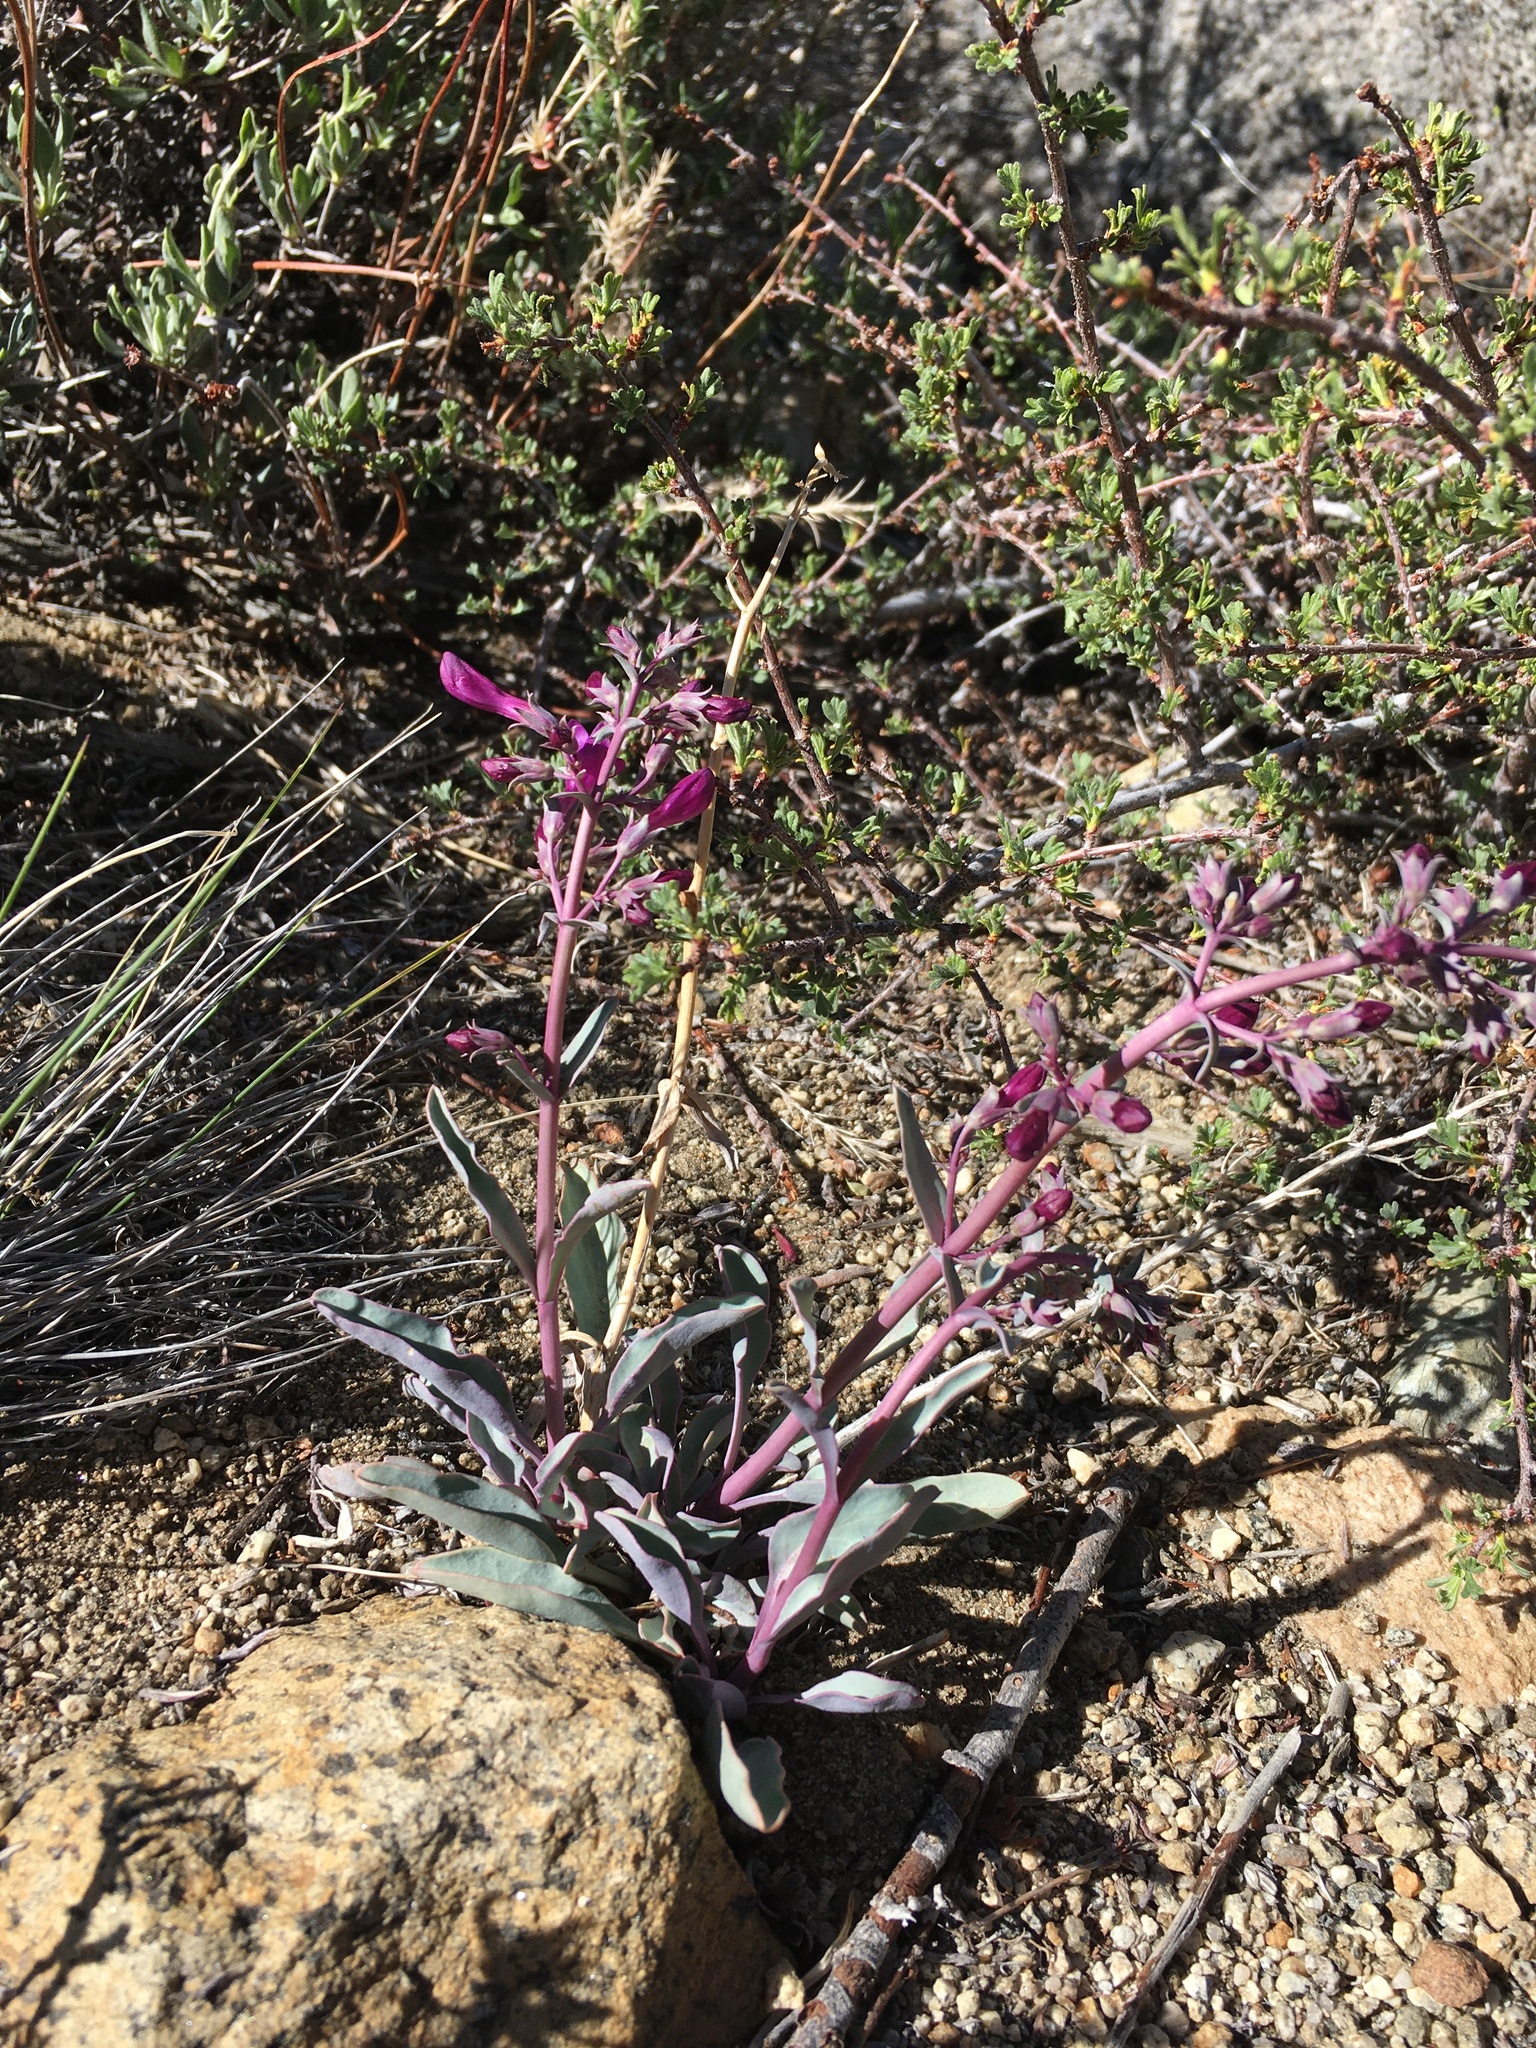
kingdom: Plantae
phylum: Tracheophyta
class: Magnoliopsida
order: Lamiales
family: Plantaginaceae
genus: Penstemon
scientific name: Penstemon patens
